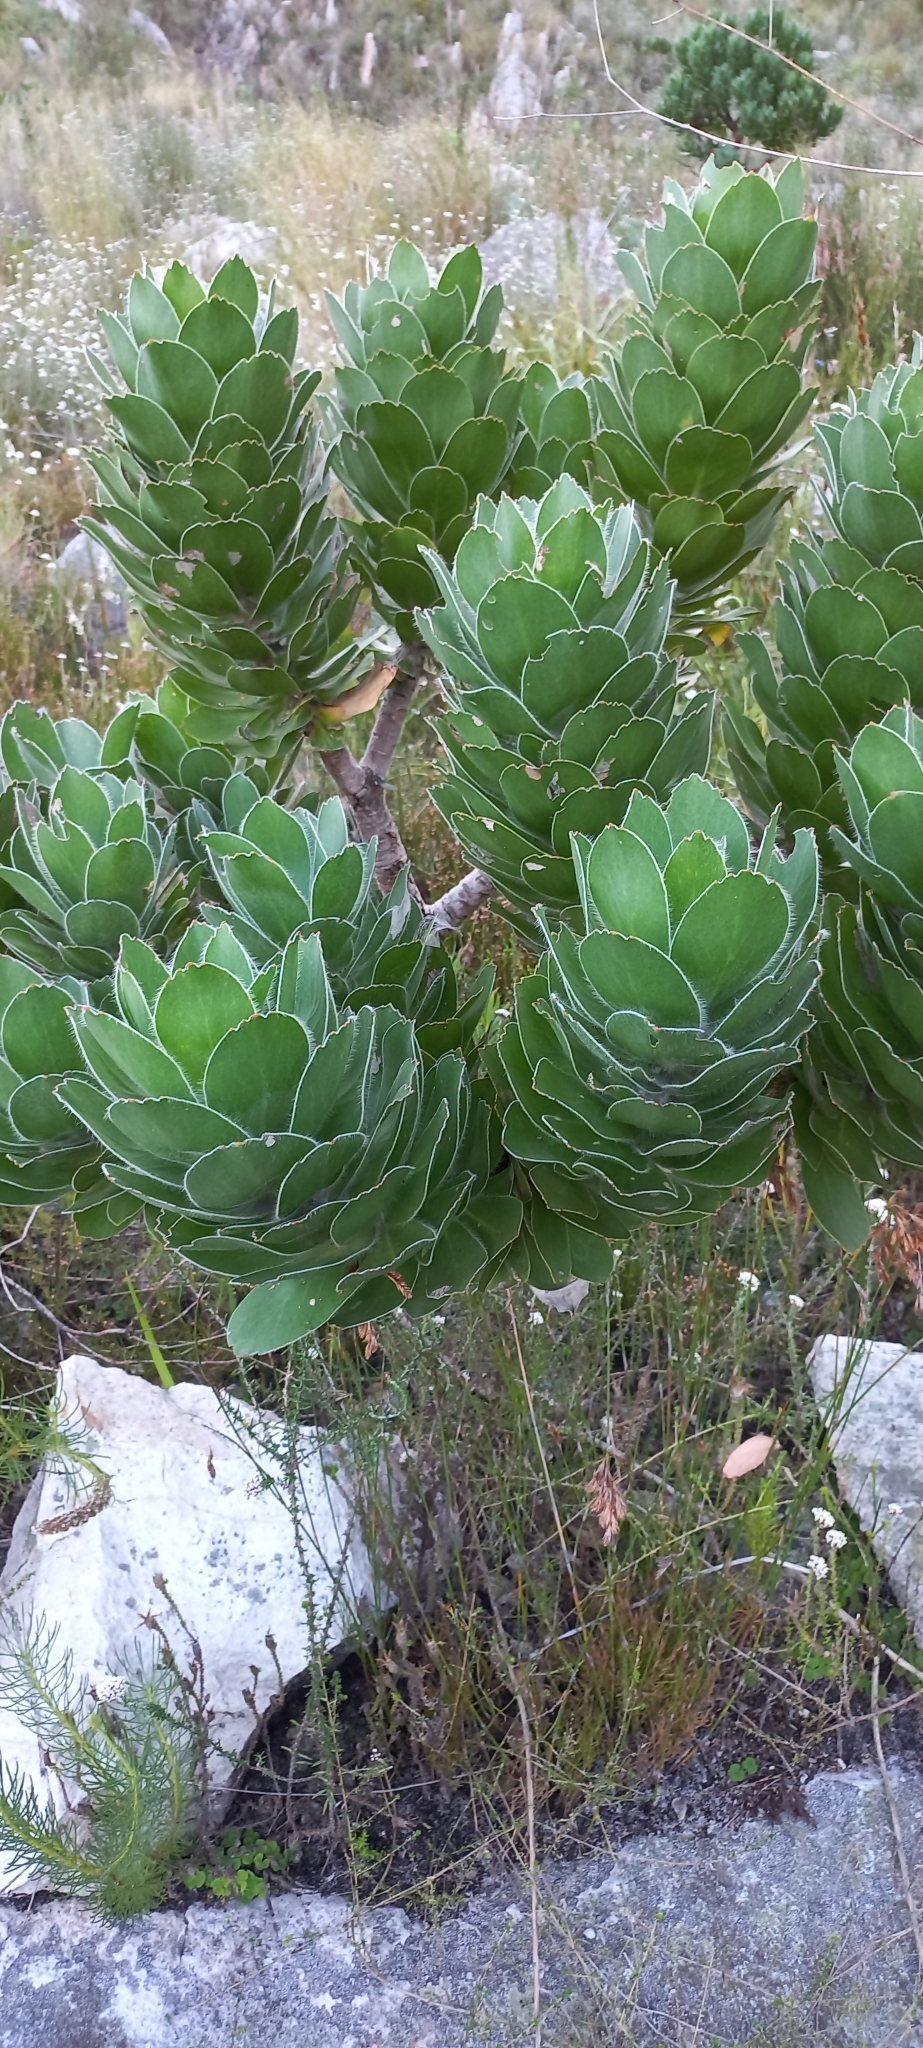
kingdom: Plantae
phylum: Tracheophyta
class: Magnoliopsida
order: Proteales
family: Proteaceae
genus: Leucospermum
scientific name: Leucospermum conocarpodendron
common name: Tree pincushion
